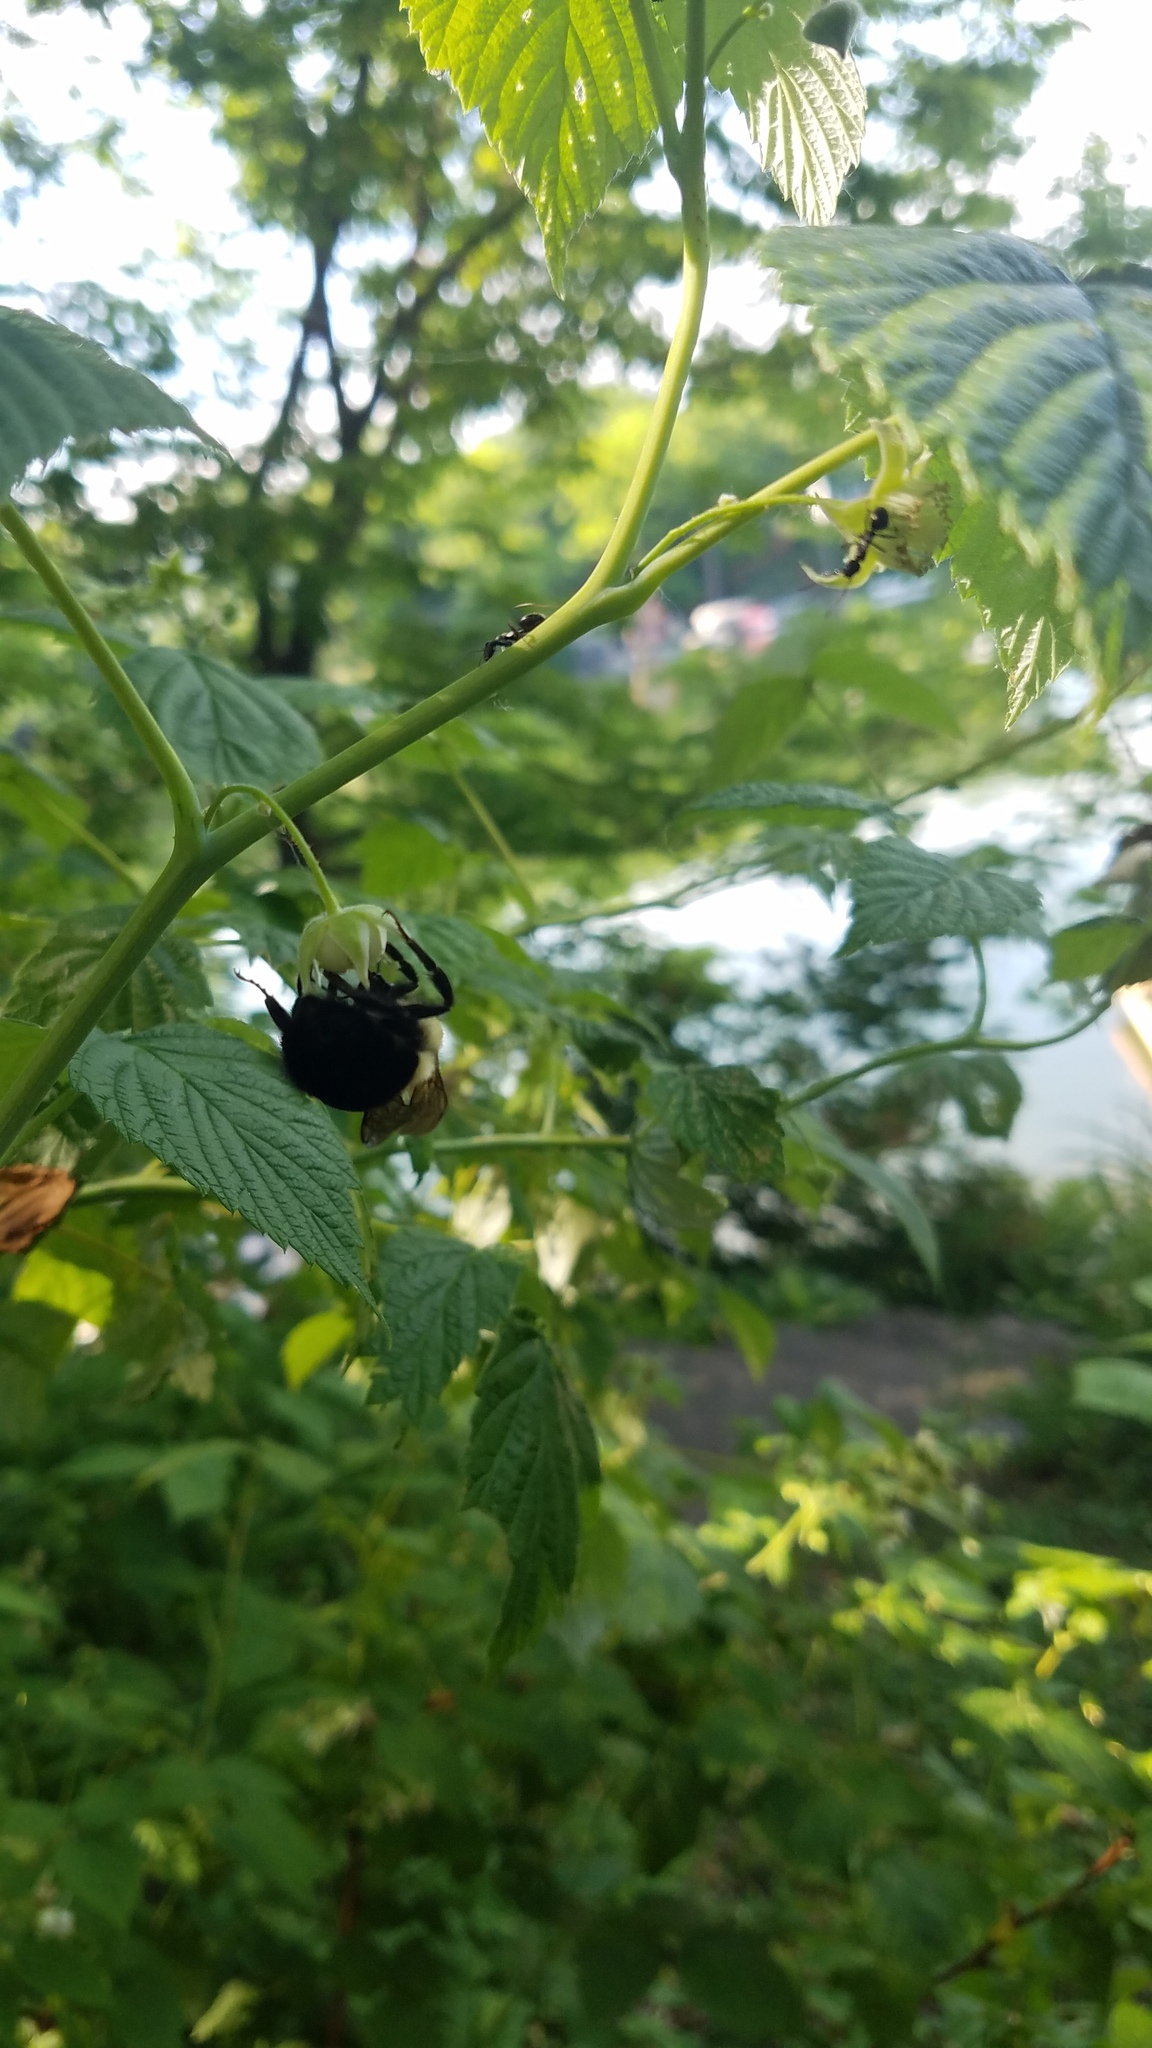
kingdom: Animalia
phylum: Arthropoda
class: Insecta
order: Hymenoptera
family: Apidae
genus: Bombus
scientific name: Bombus
